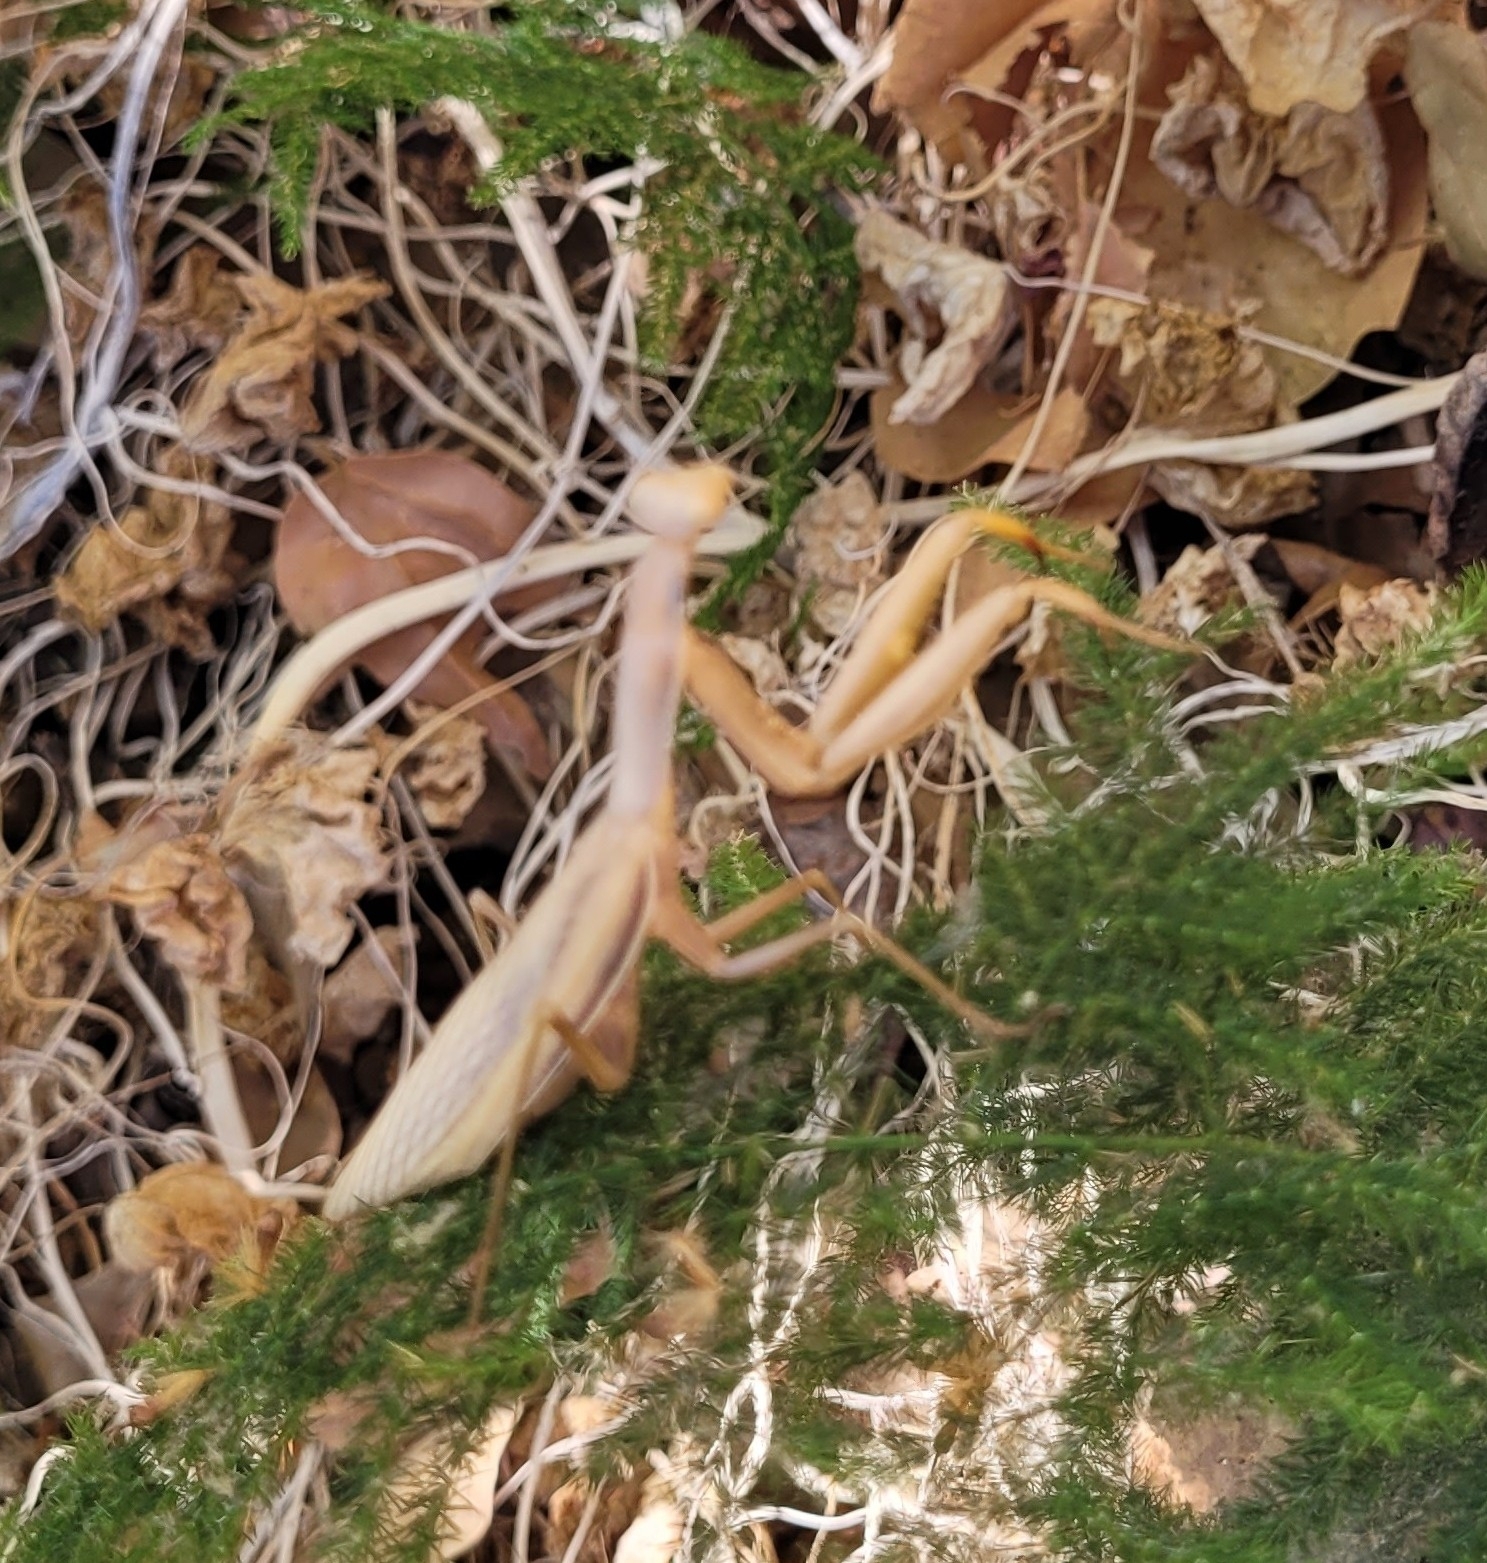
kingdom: Animalia
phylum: Arthropoda
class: Insecta
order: Mantodea
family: Mantidae
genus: Mantis
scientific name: Mantis religiosa
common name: Praying mantis
